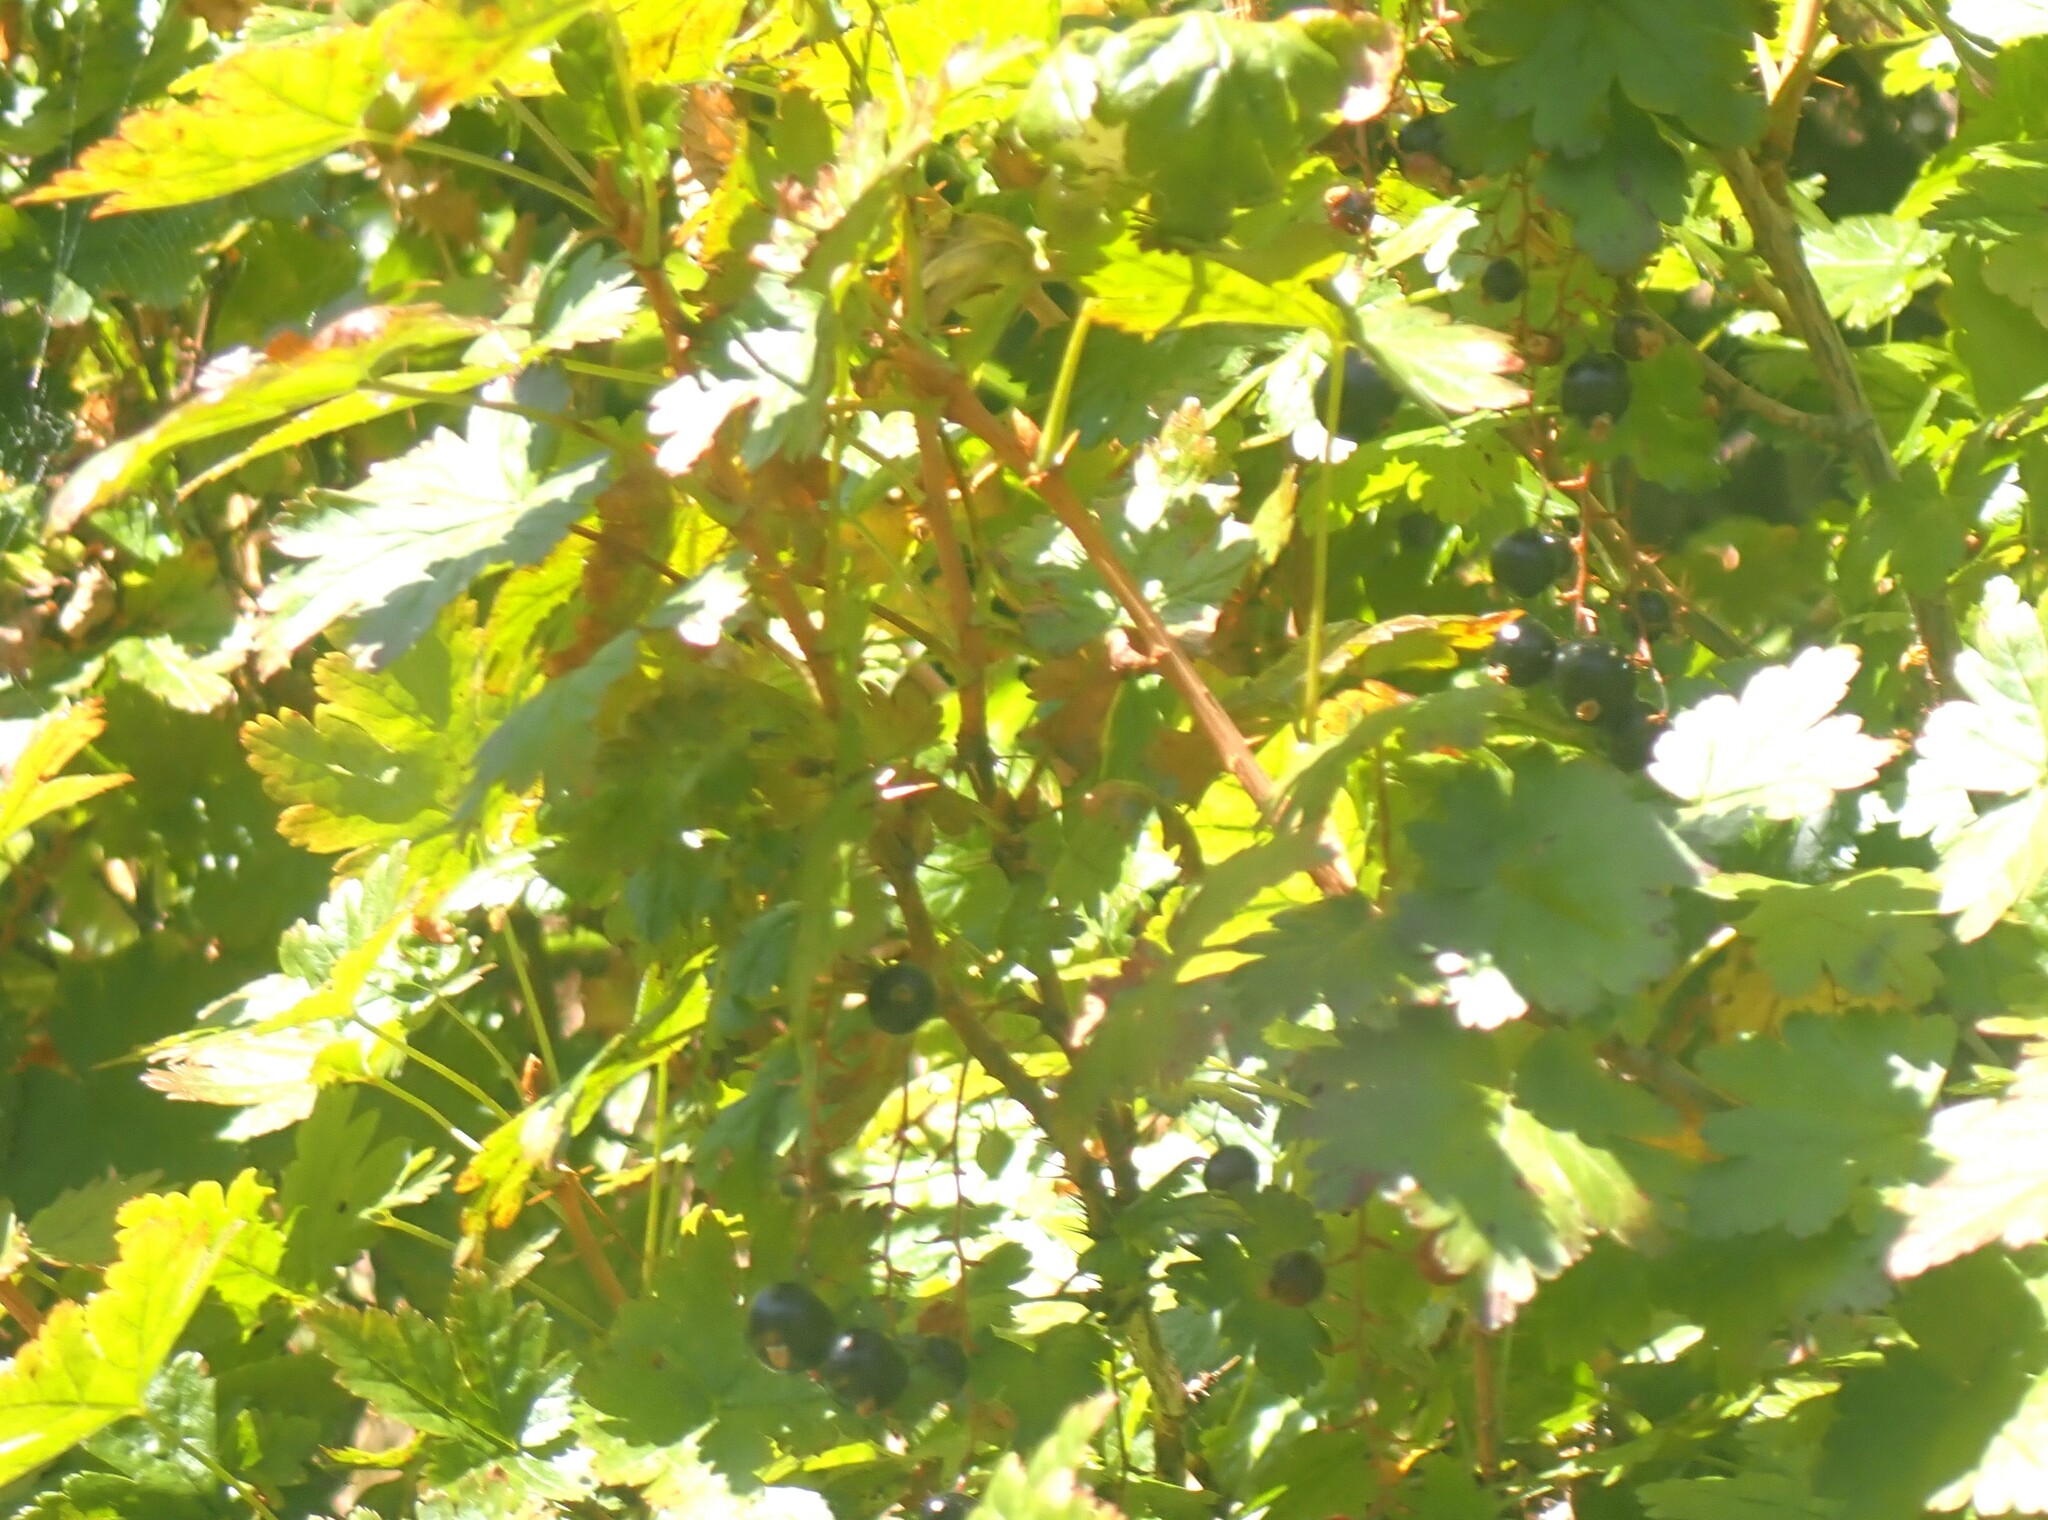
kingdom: Plantae
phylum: Tracheophyta
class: Magnoliopsida
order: Saxifragales
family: Grossulariaceae
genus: Ribes
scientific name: Ribes lacustre
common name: Black gooseberry
